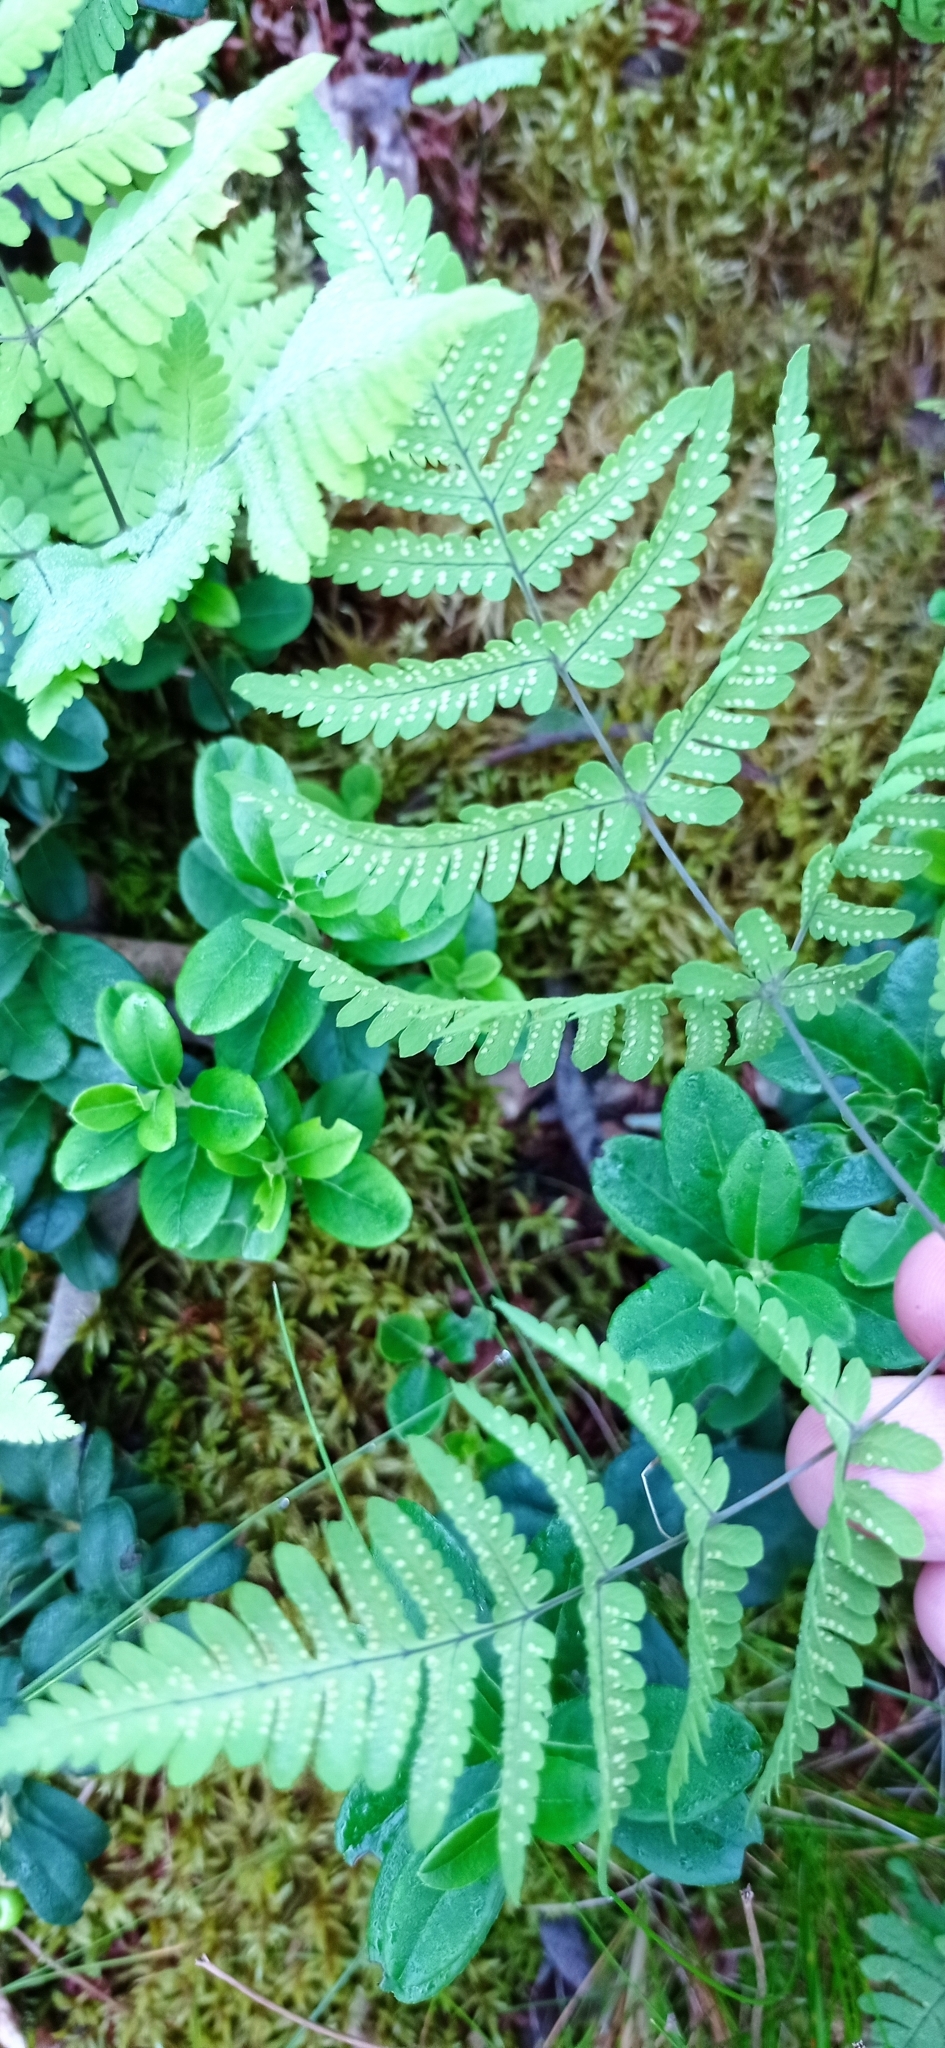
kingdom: Plantae
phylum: Tracheophyta
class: Polypodiopsida
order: Polypodiales
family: Cystopteridaceae
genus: Gymnocarpium
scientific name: Gymnocarpium dryopteris
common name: Oak fern
